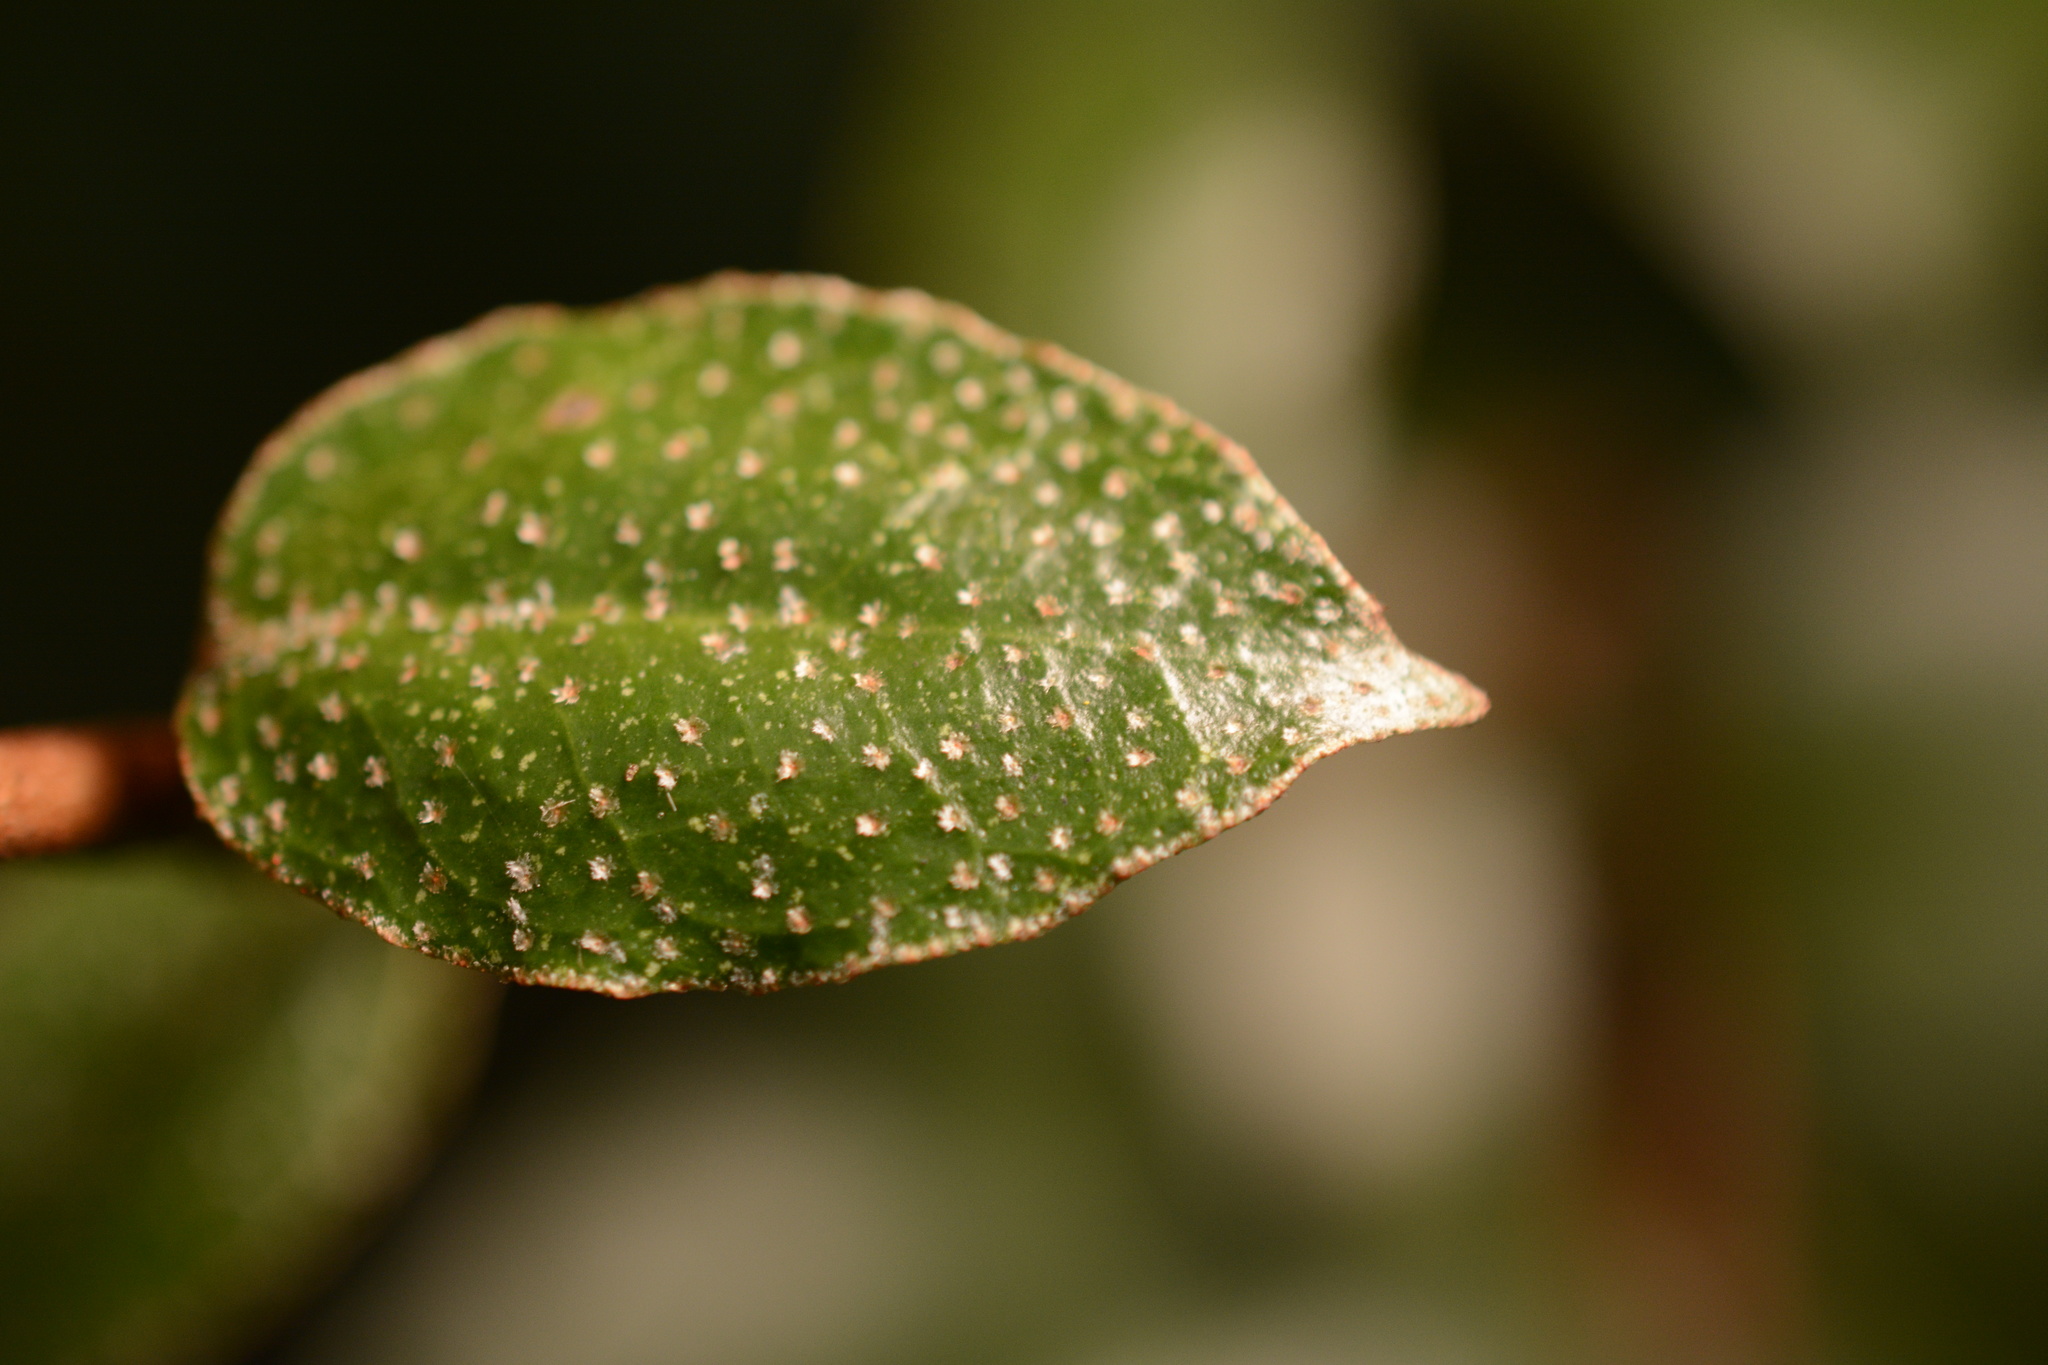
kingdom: Plantae
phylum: Tracheophyta
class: Magnoliopsida
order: Rosales
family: Elaeagnaceae
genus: Elaeagnus
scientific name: Elaeagnus pungens
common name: Spiny oleaster
